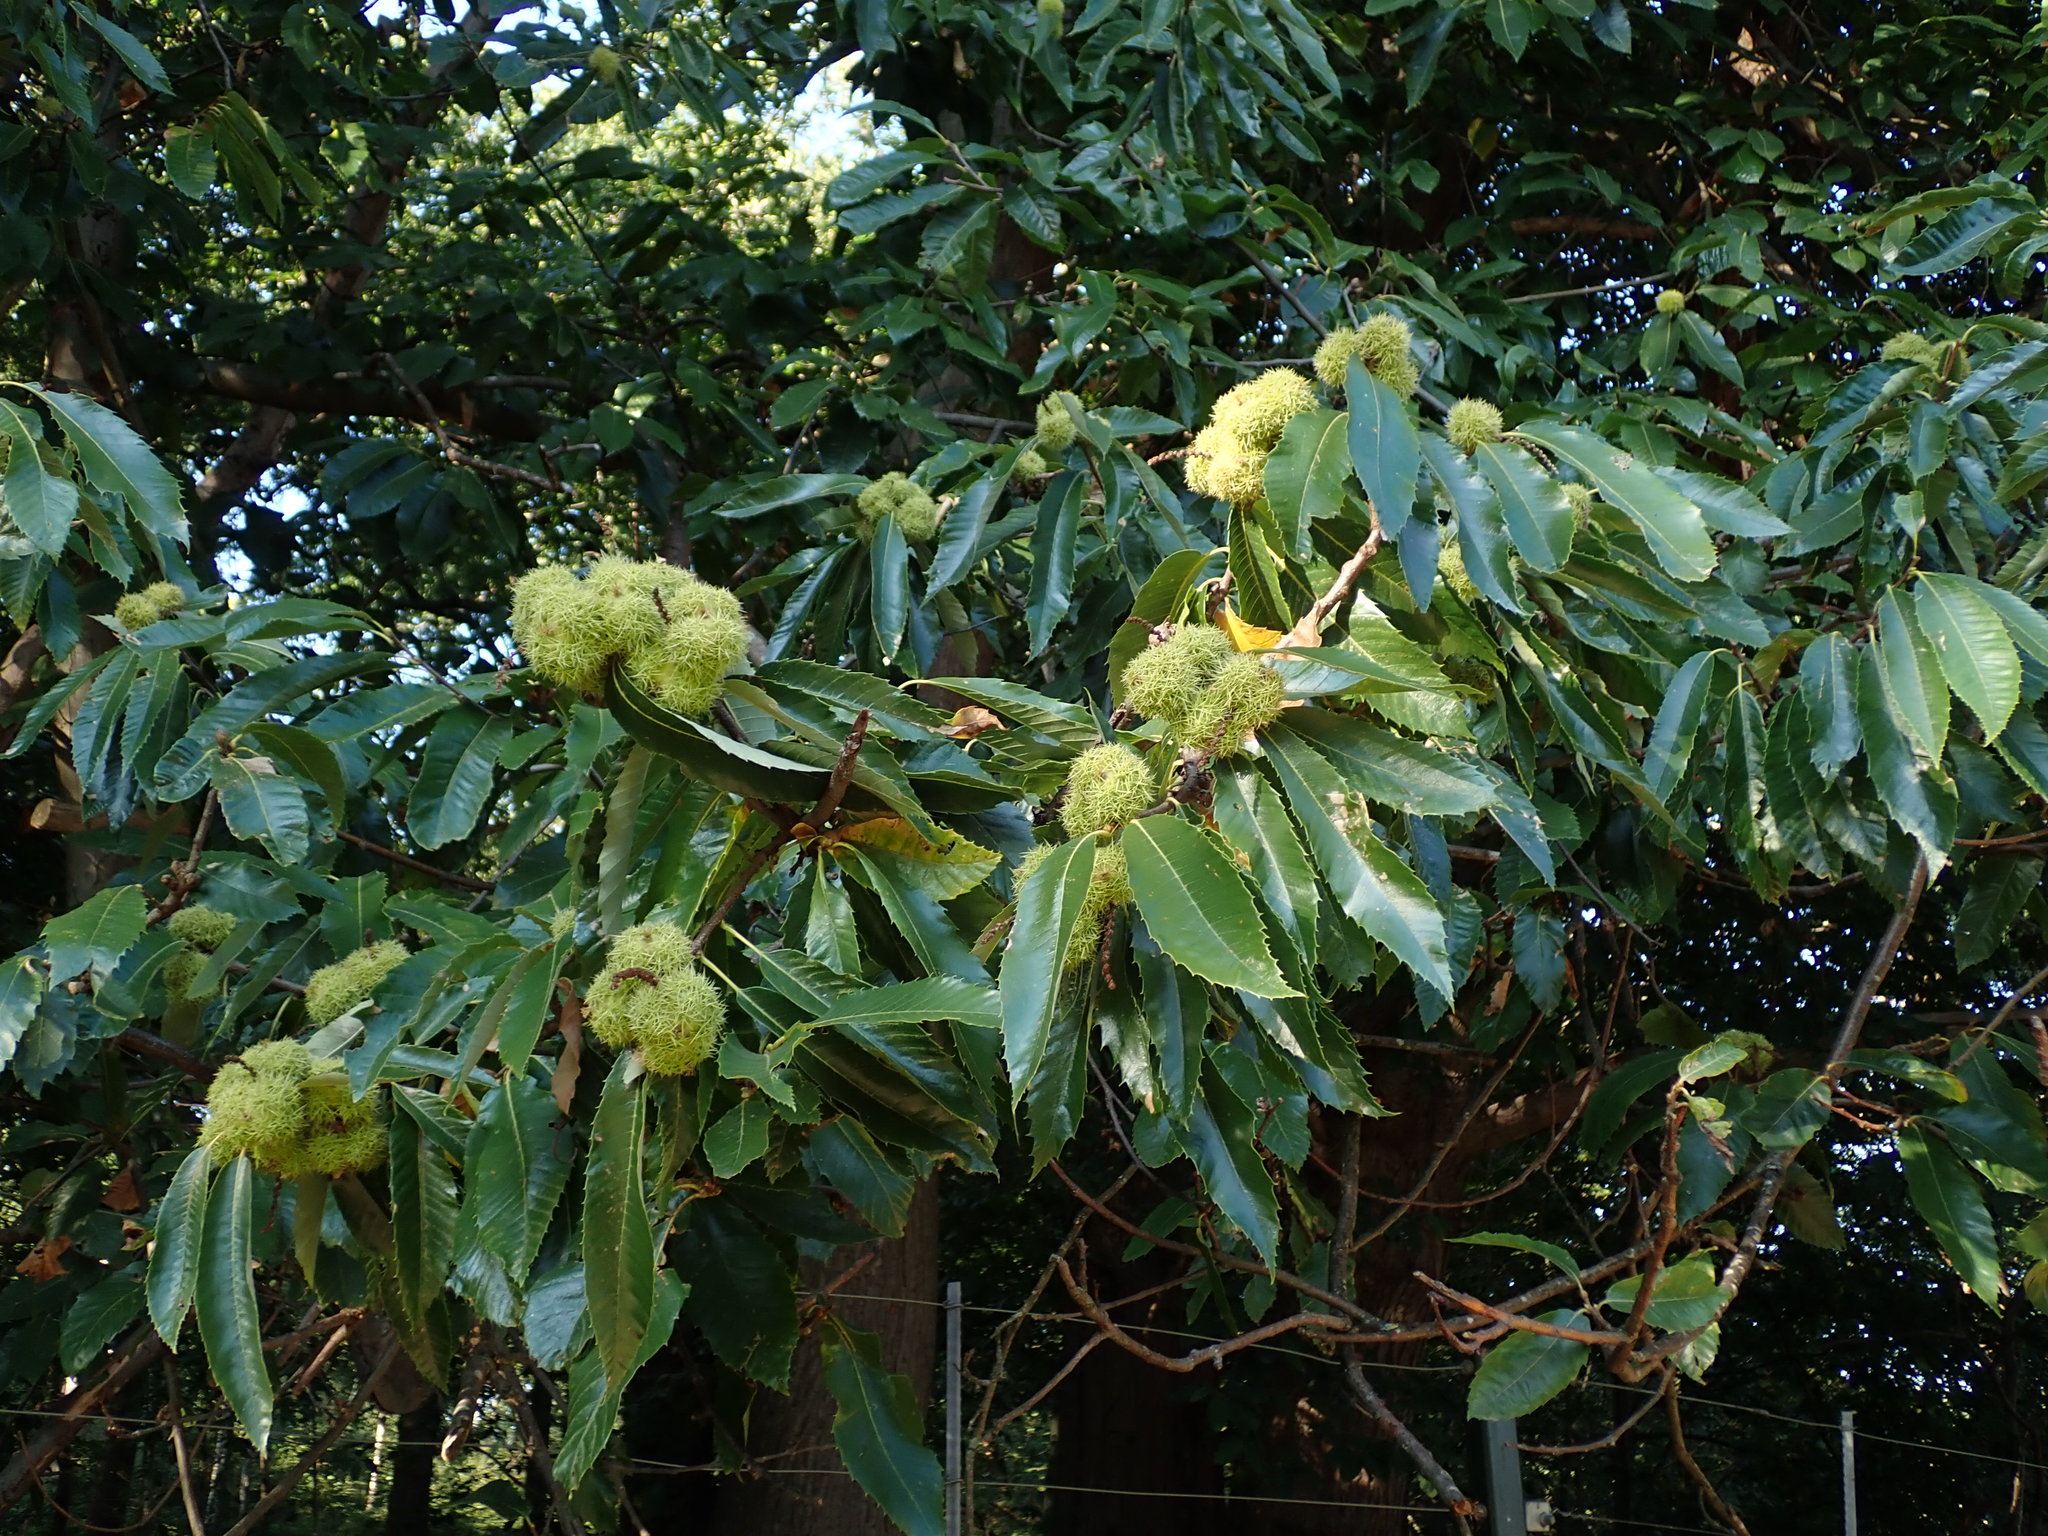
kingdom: Plantae
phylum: Tracheophyta
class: Magnoliopsida
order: Fagales
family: Fagaceae
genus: Castanea
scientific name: Castanea sativa
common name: Sweet chestnut
